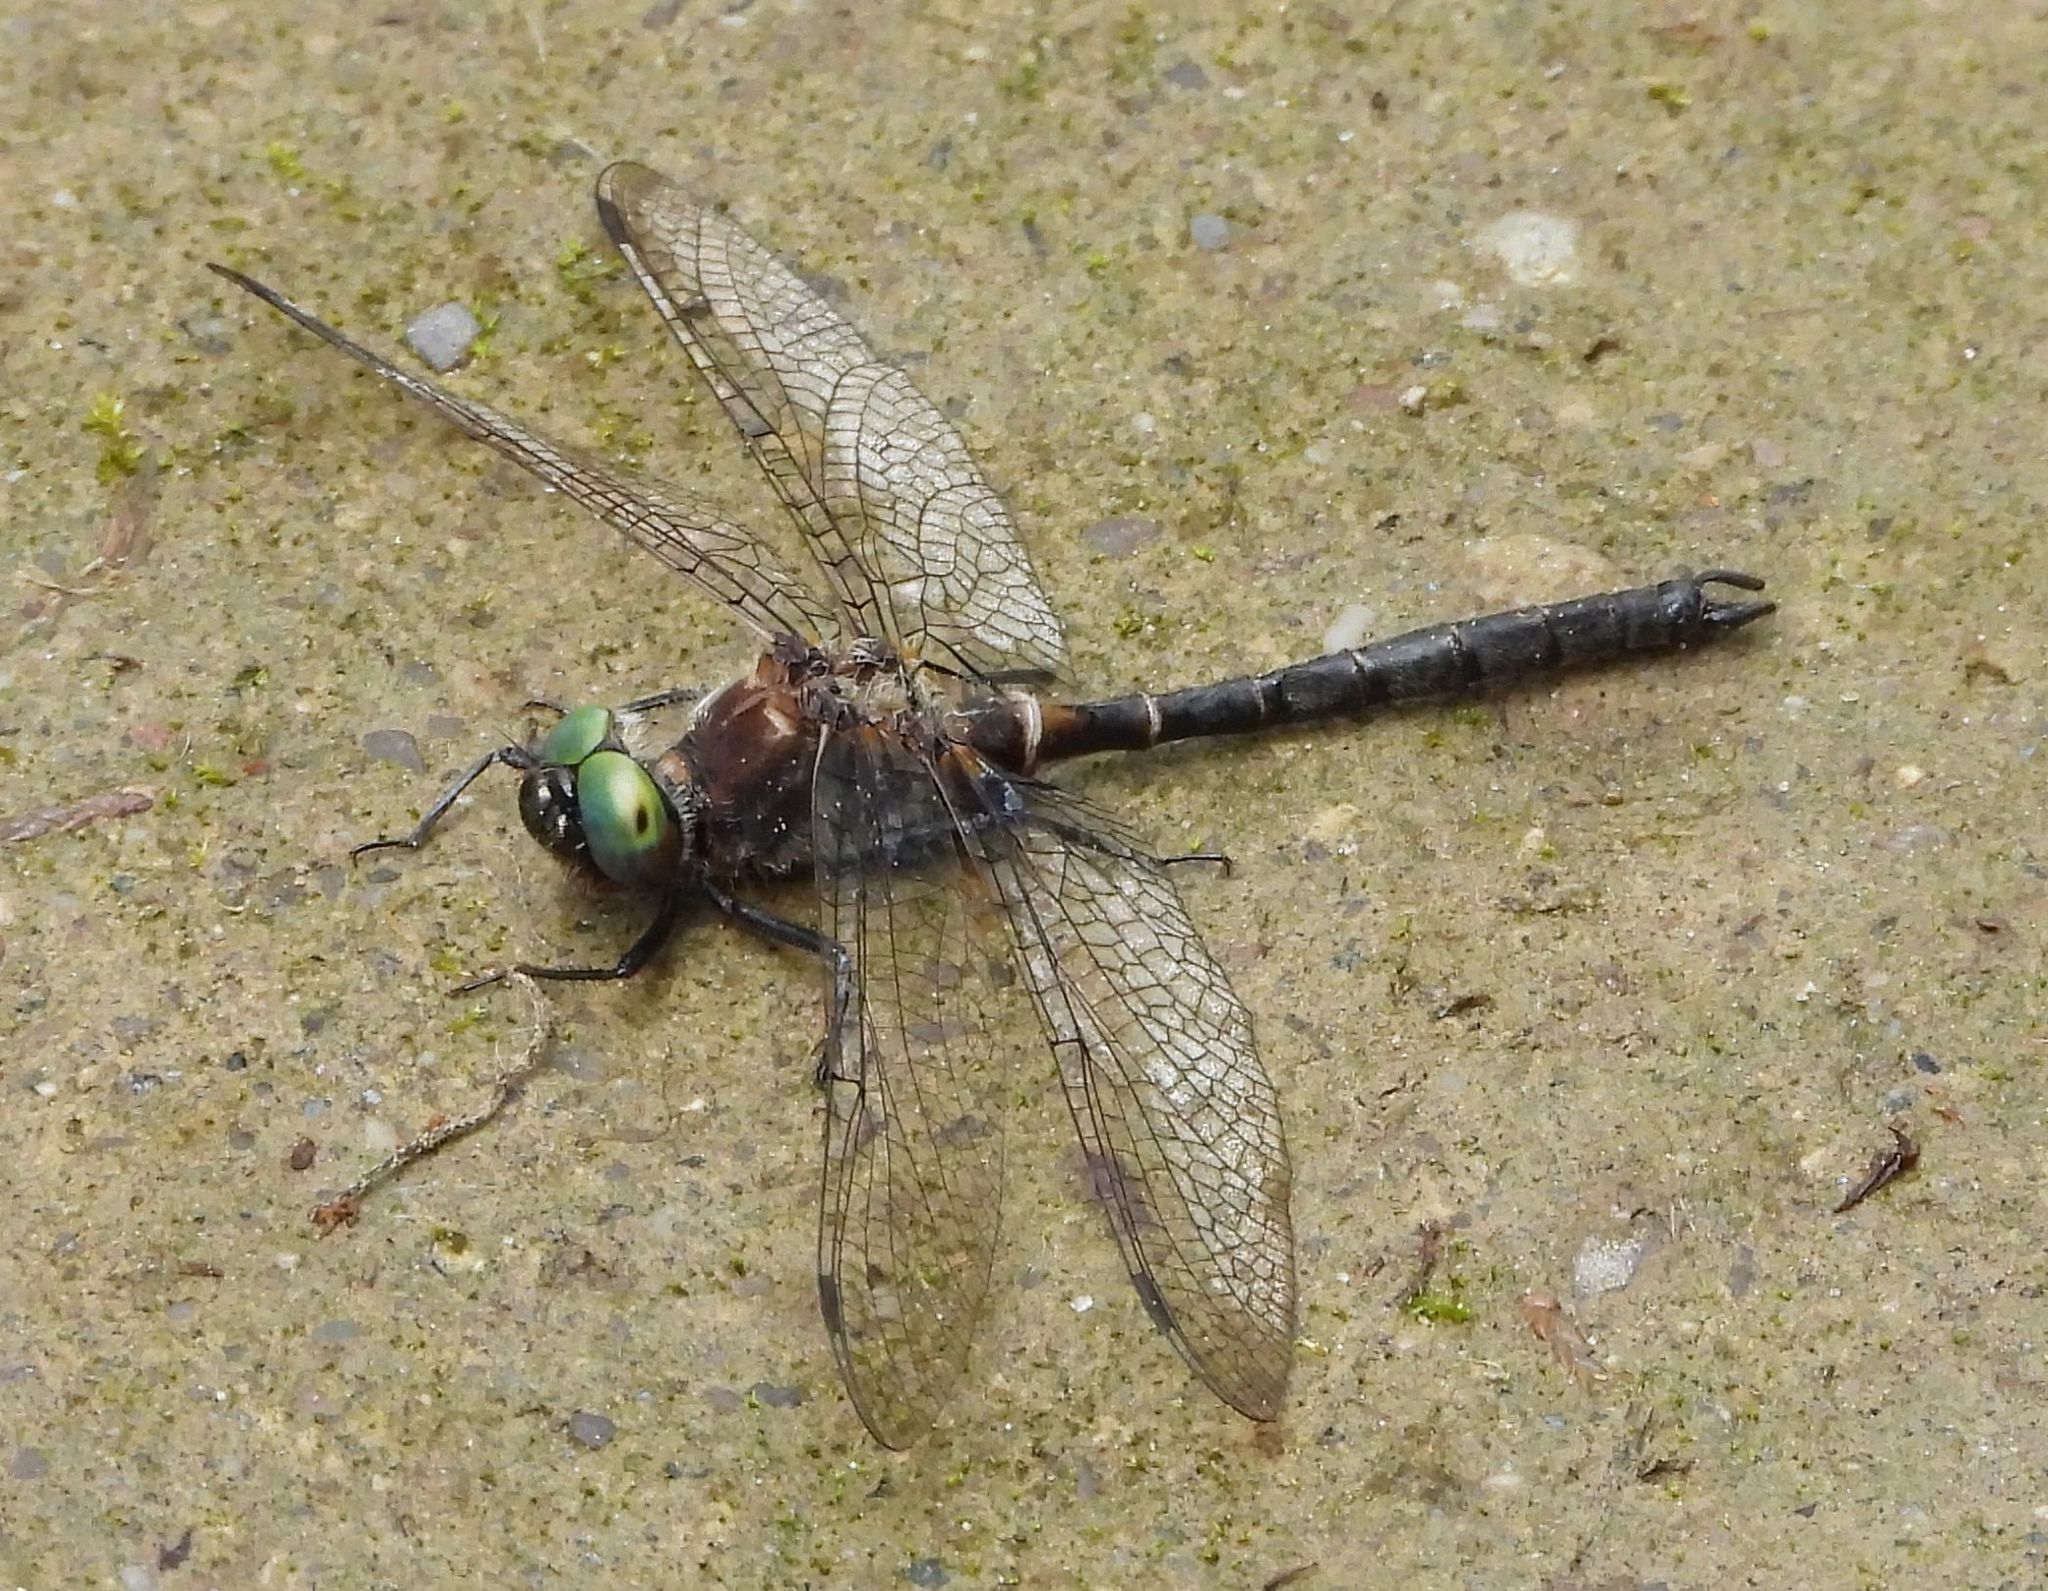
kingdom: Animalia
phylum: Arthropoda
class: Insecta
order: Odonata
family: Corduliidae
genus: Williamsonia
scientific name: Williamsonia fletcheri
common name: Ebony boghaunter
